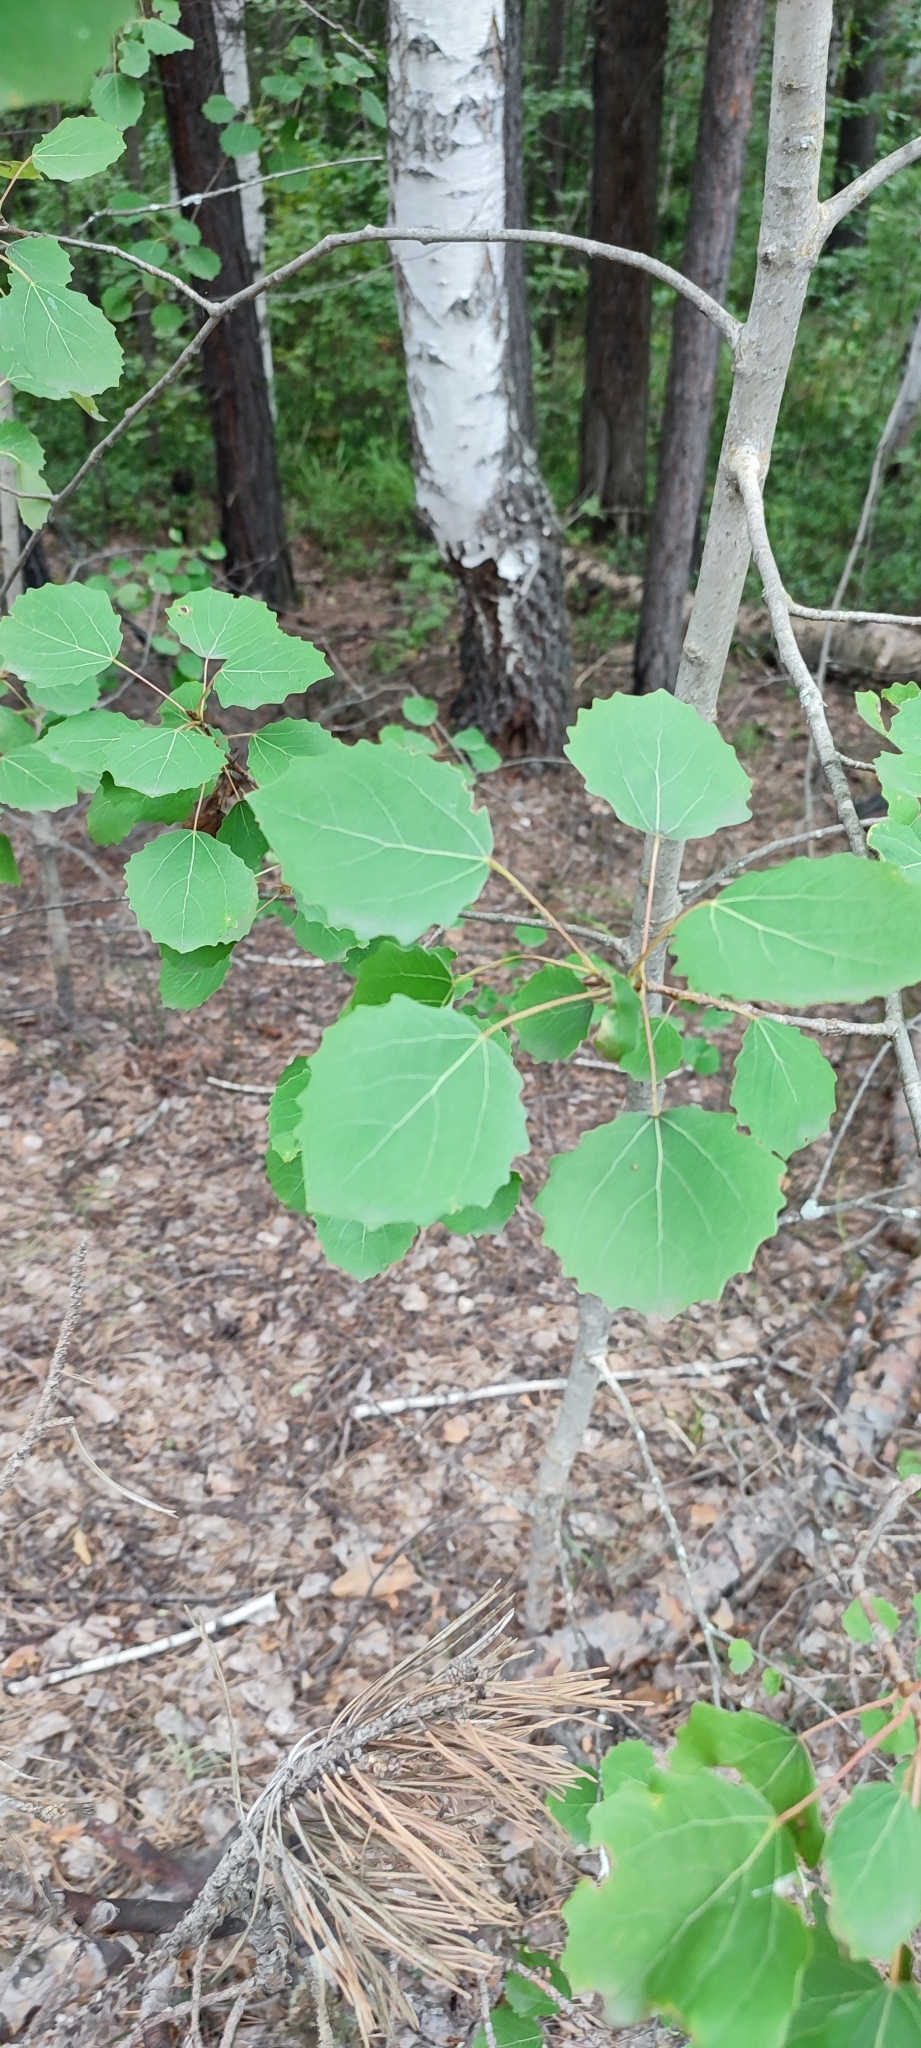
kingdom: Plantae
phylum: Tracheophyta
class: Magnoliopsida
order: Malpighiales
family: Salicaceae
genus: Populus
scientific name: Populus tremula
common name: European aspen
